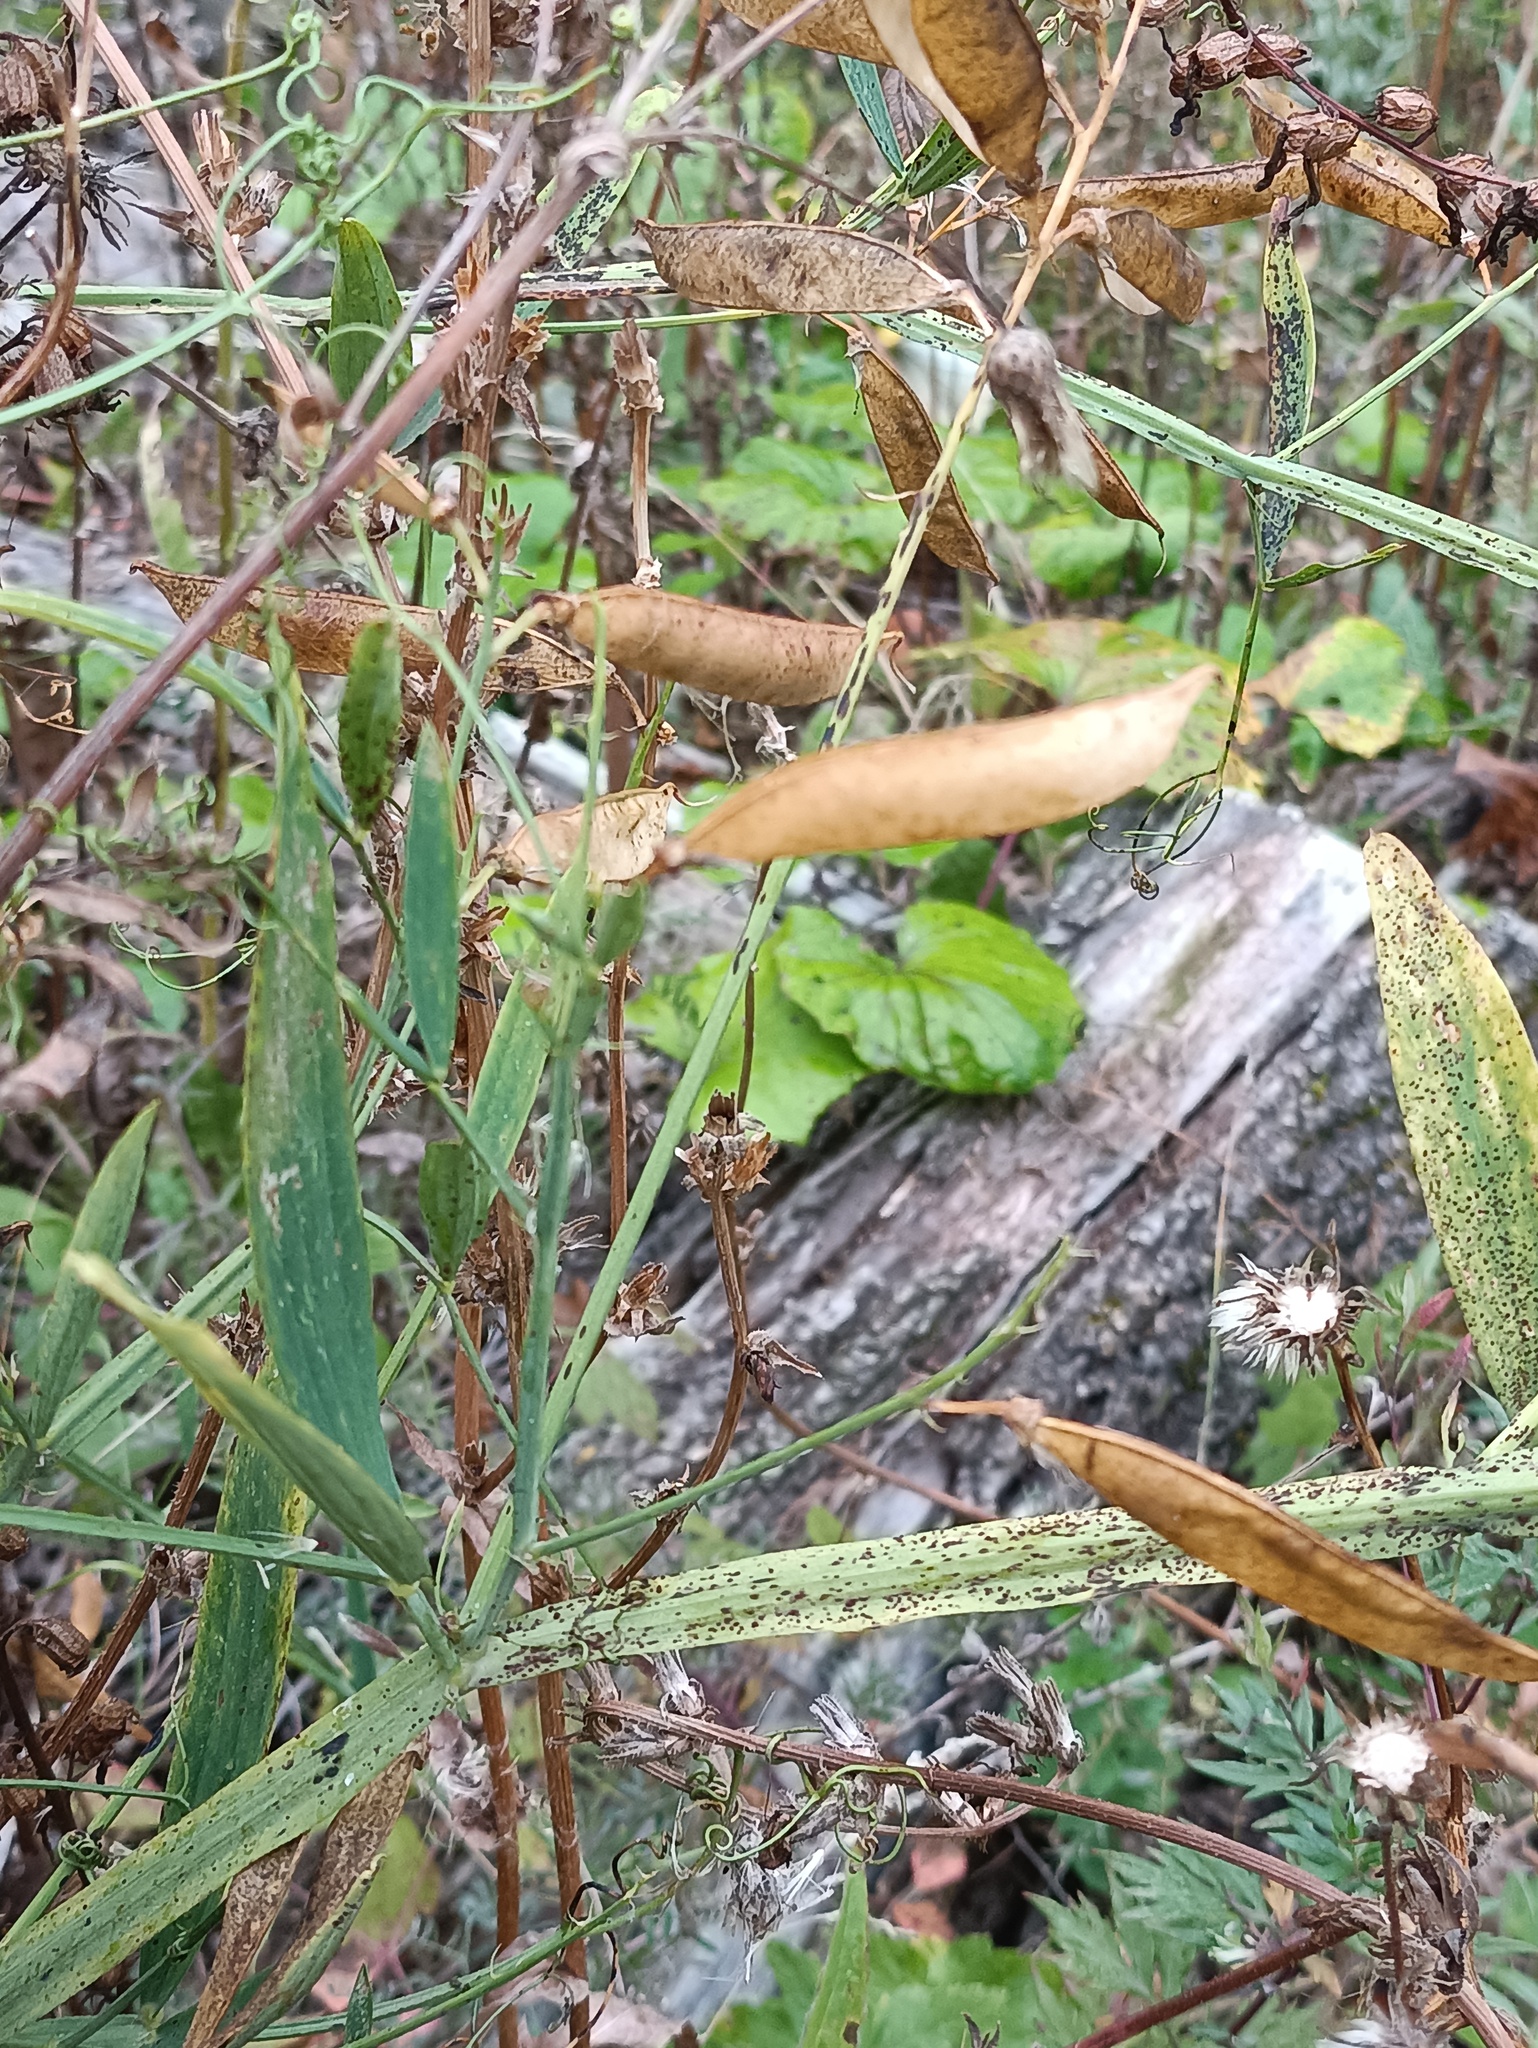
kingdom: Plantae
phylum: Tracheophyta
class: Magnoliopsida
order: Fabales
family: Fabaceae
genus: Lathyrus
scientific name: Lathyrus sylvestris
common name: Flat pea
